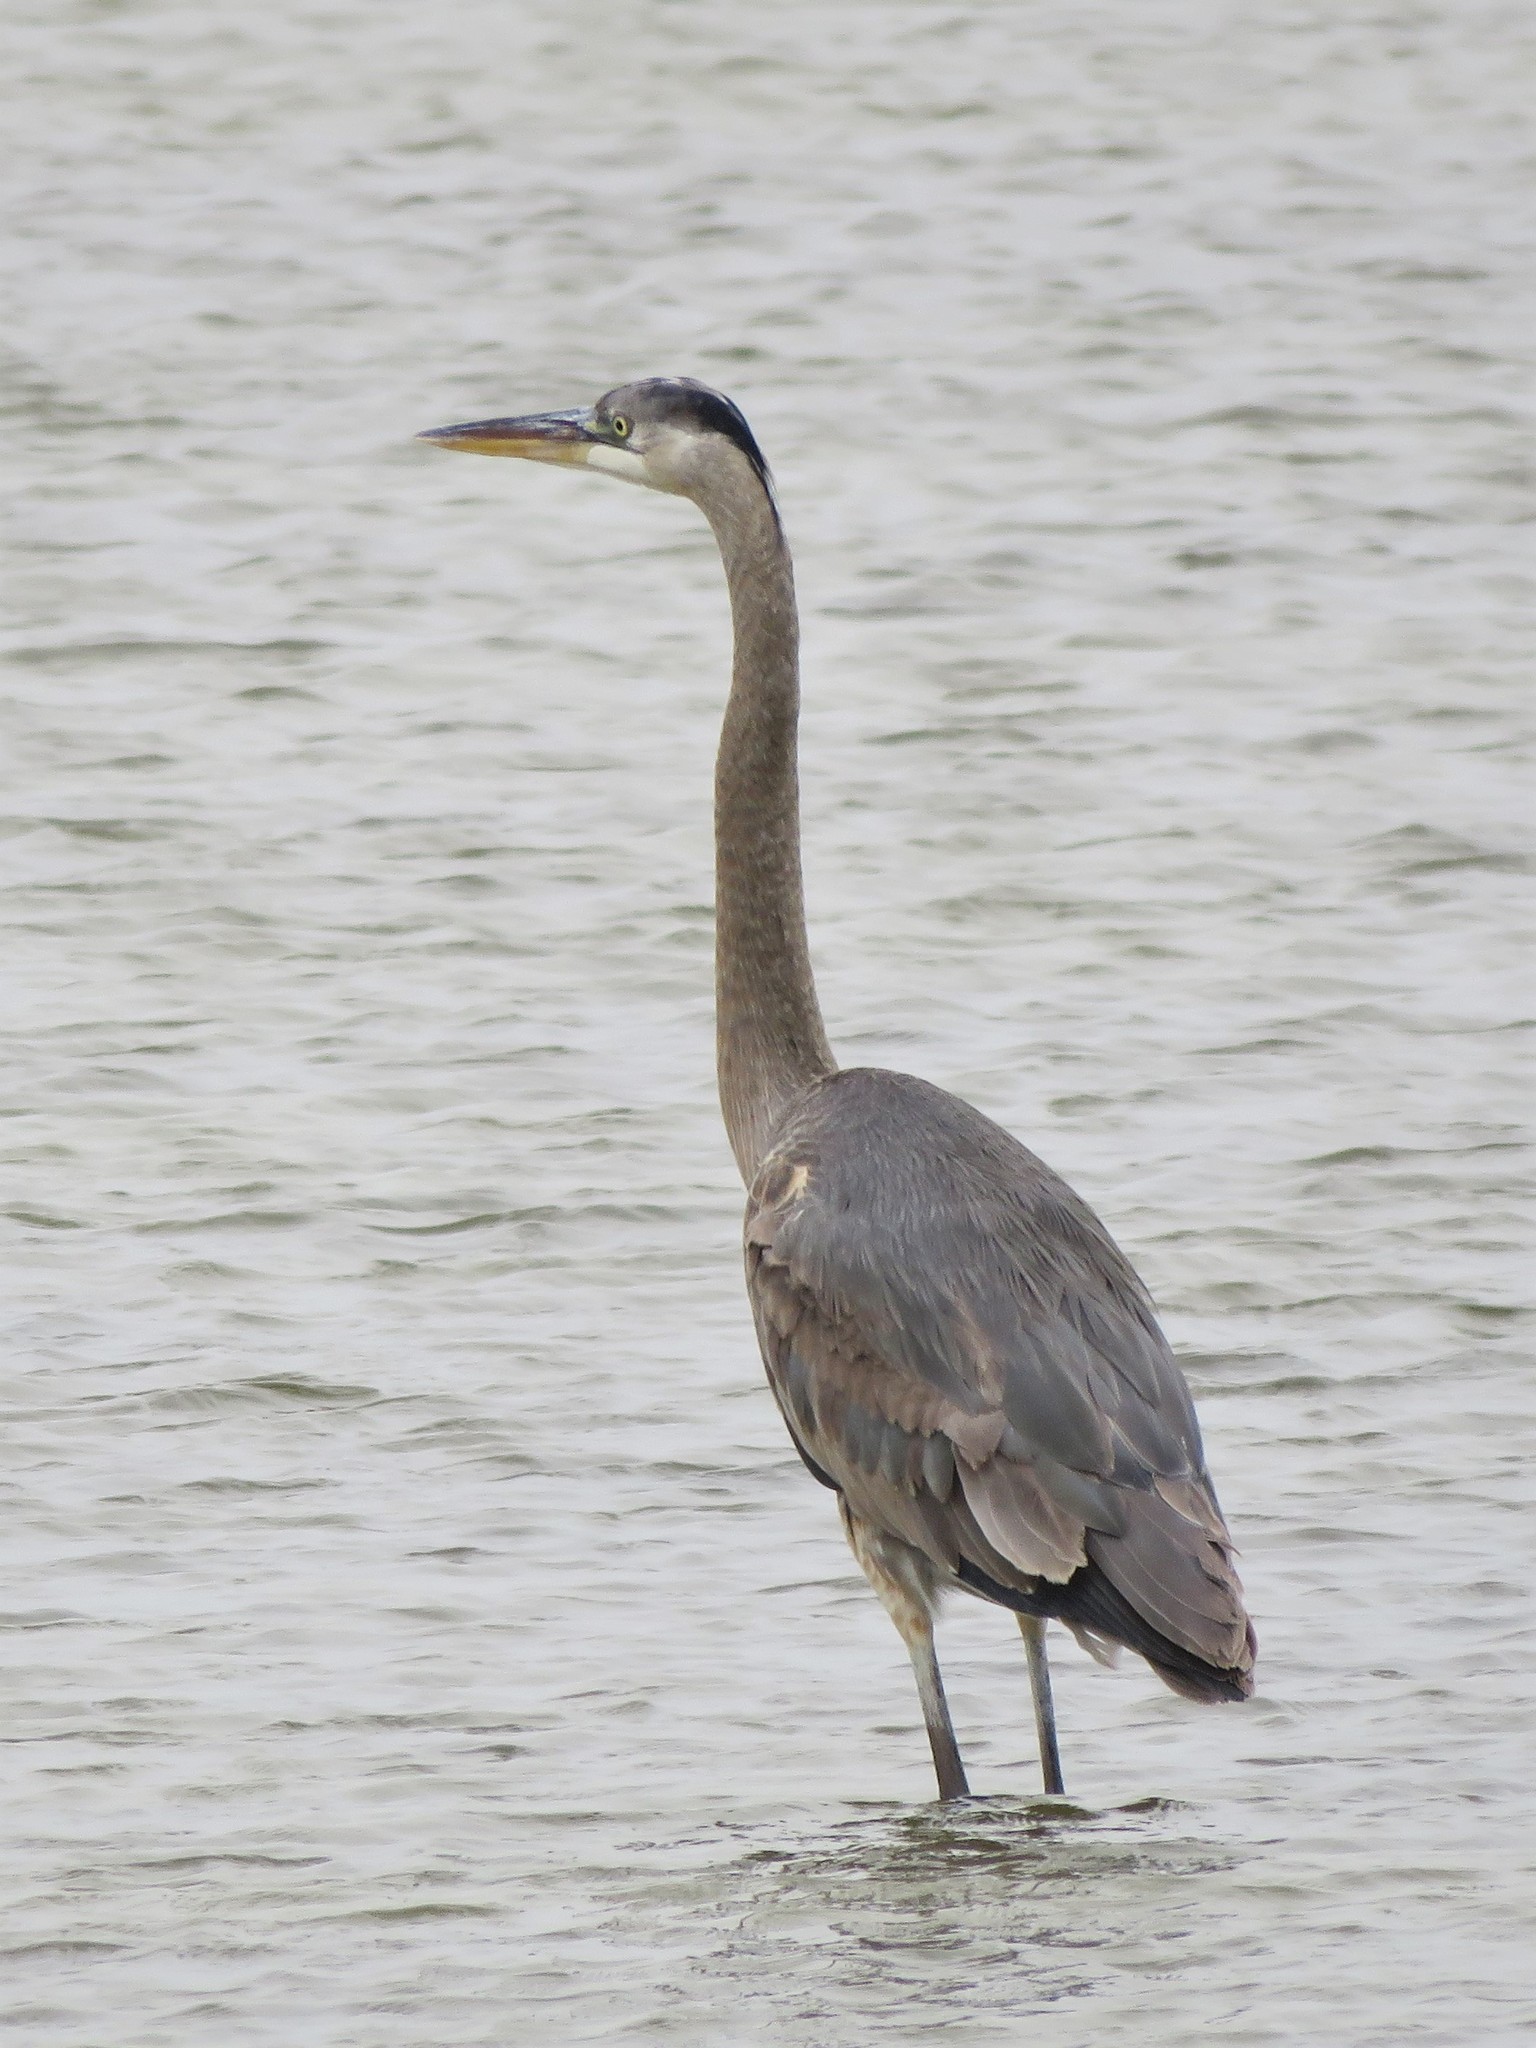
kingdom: Animalia
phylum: Chordata
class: Aves
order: Pelecaniformes
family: Ardeidae
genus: Ardea
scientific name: Ardea herodias
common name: Great blue heron
